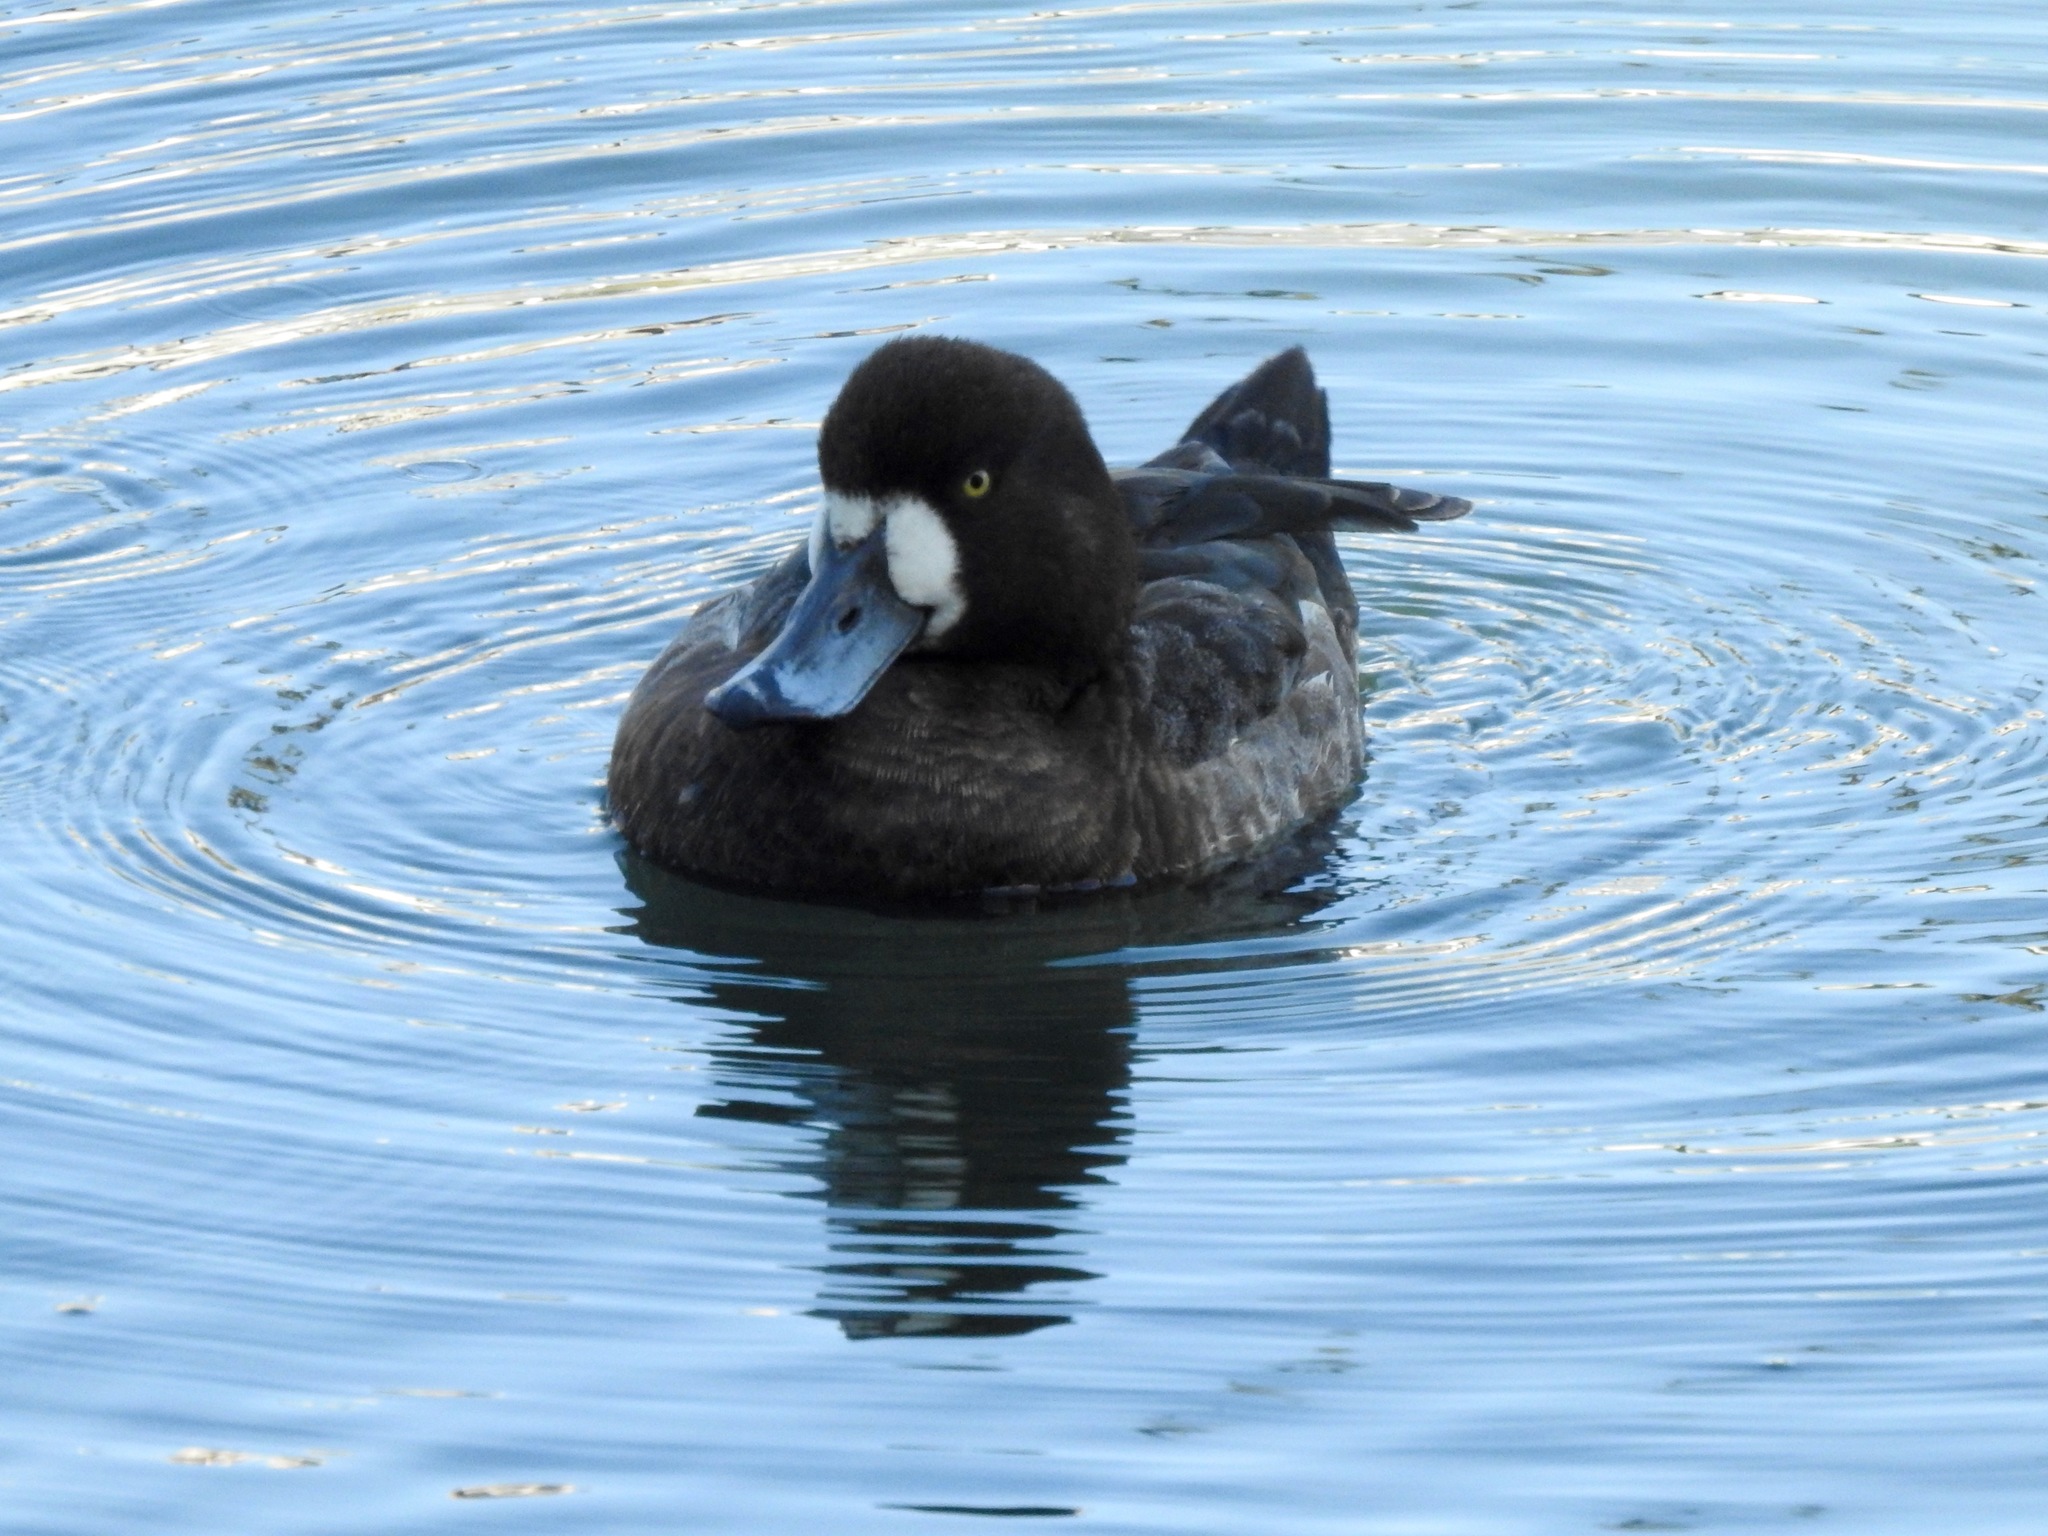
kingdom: Animalia
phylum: Chordata
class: Aves
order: Anseriformes
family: Anatidae
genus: Aythya
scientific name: Aythya marila
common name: Greater scaup
